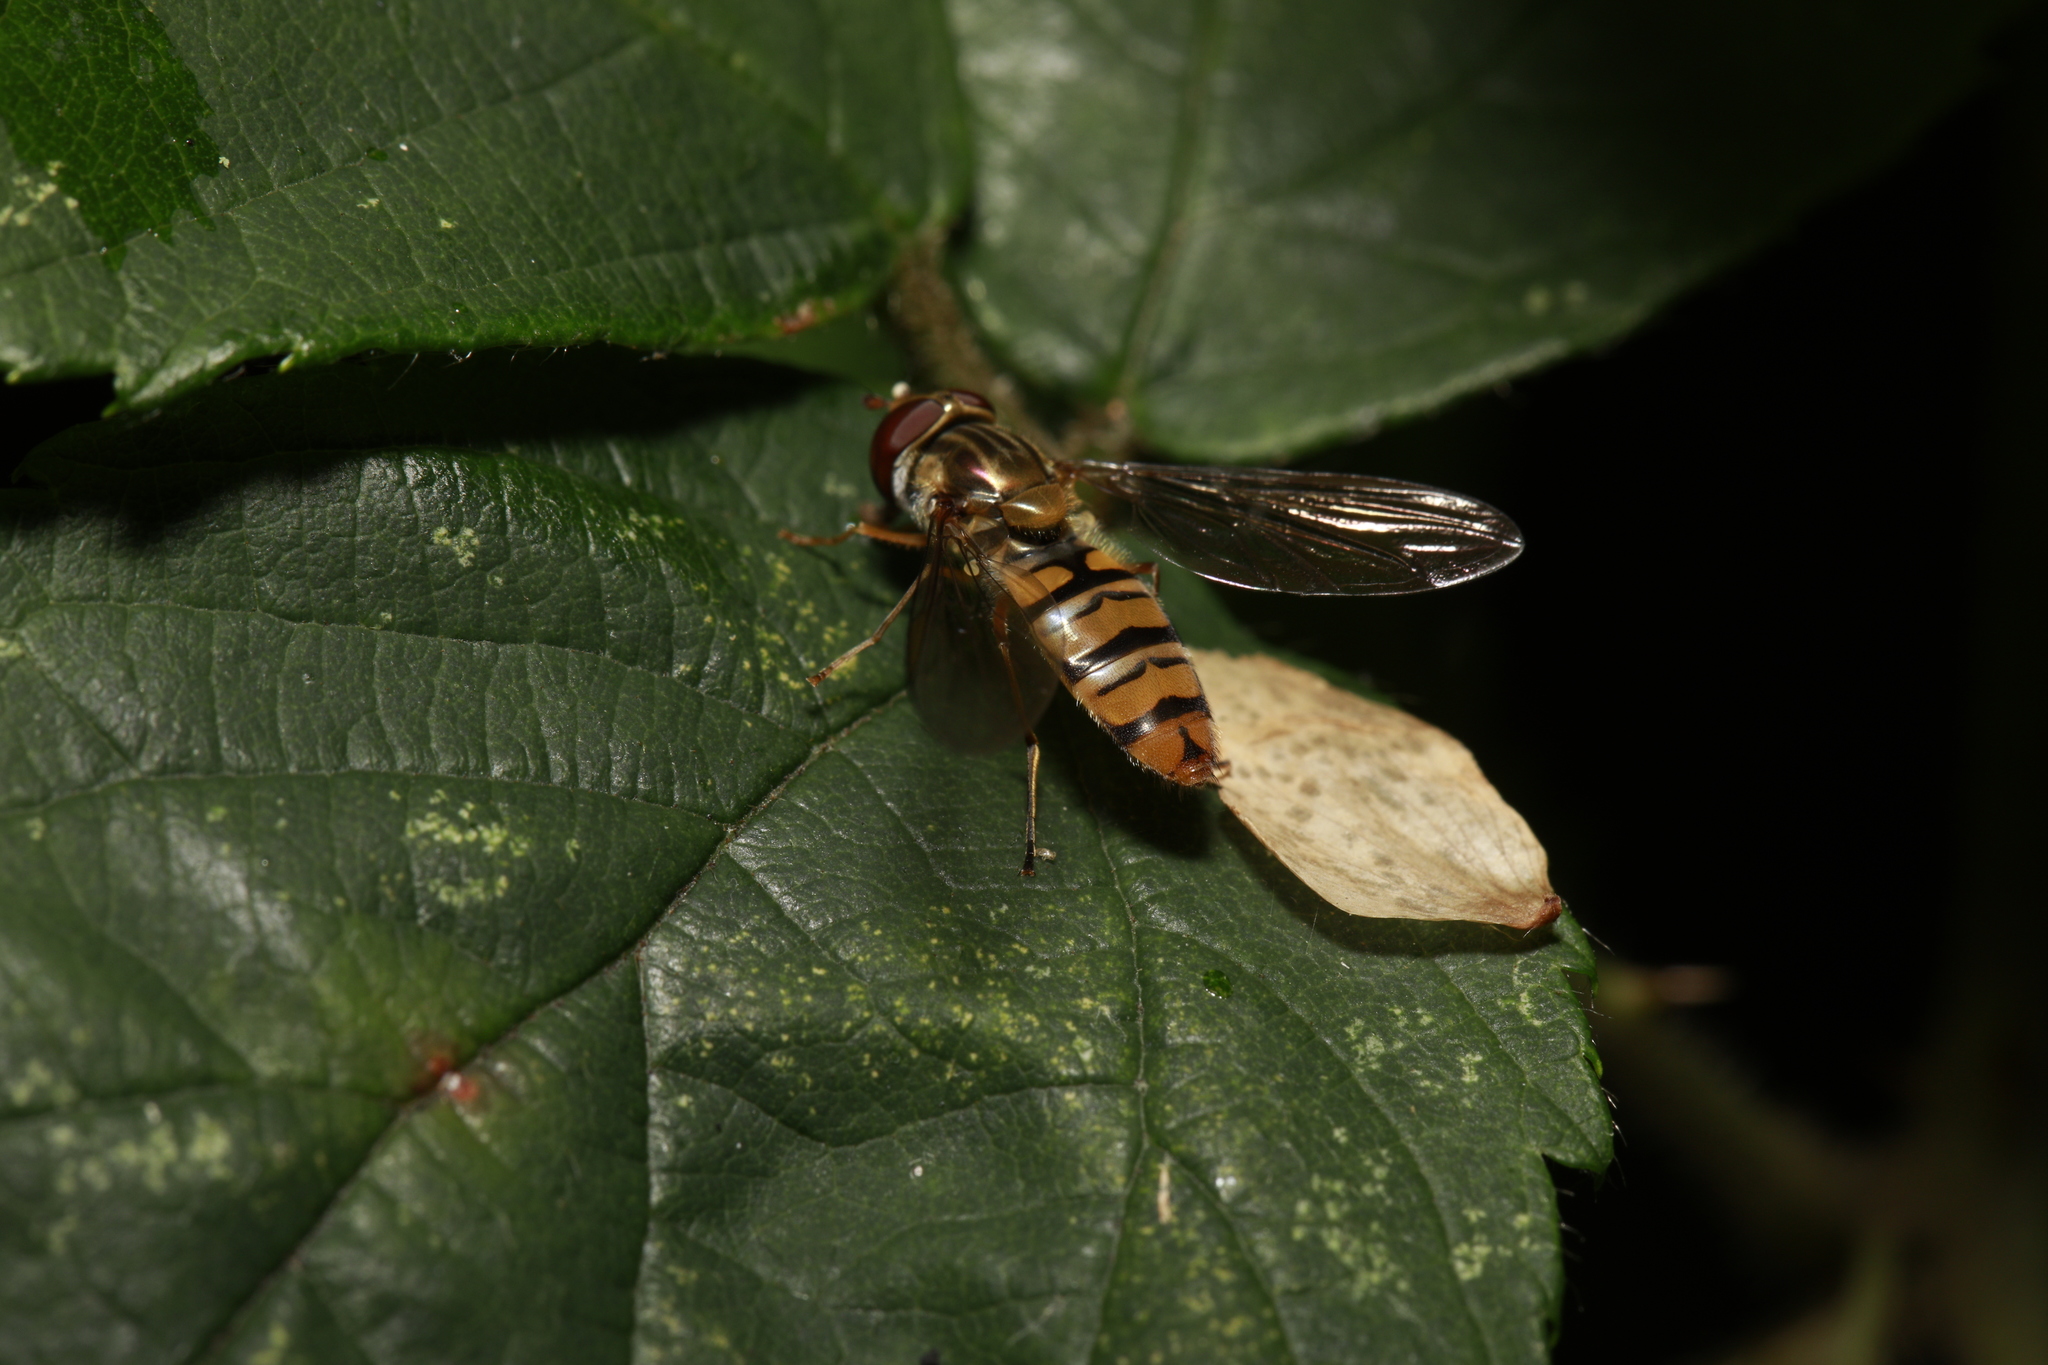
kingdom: Animalia
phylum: Arthropoda
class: Insecta
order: Diptera
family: Syrphidae
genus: Episyrphus
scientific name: Episyrphus balteatus
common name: Marmalade hoverfly
